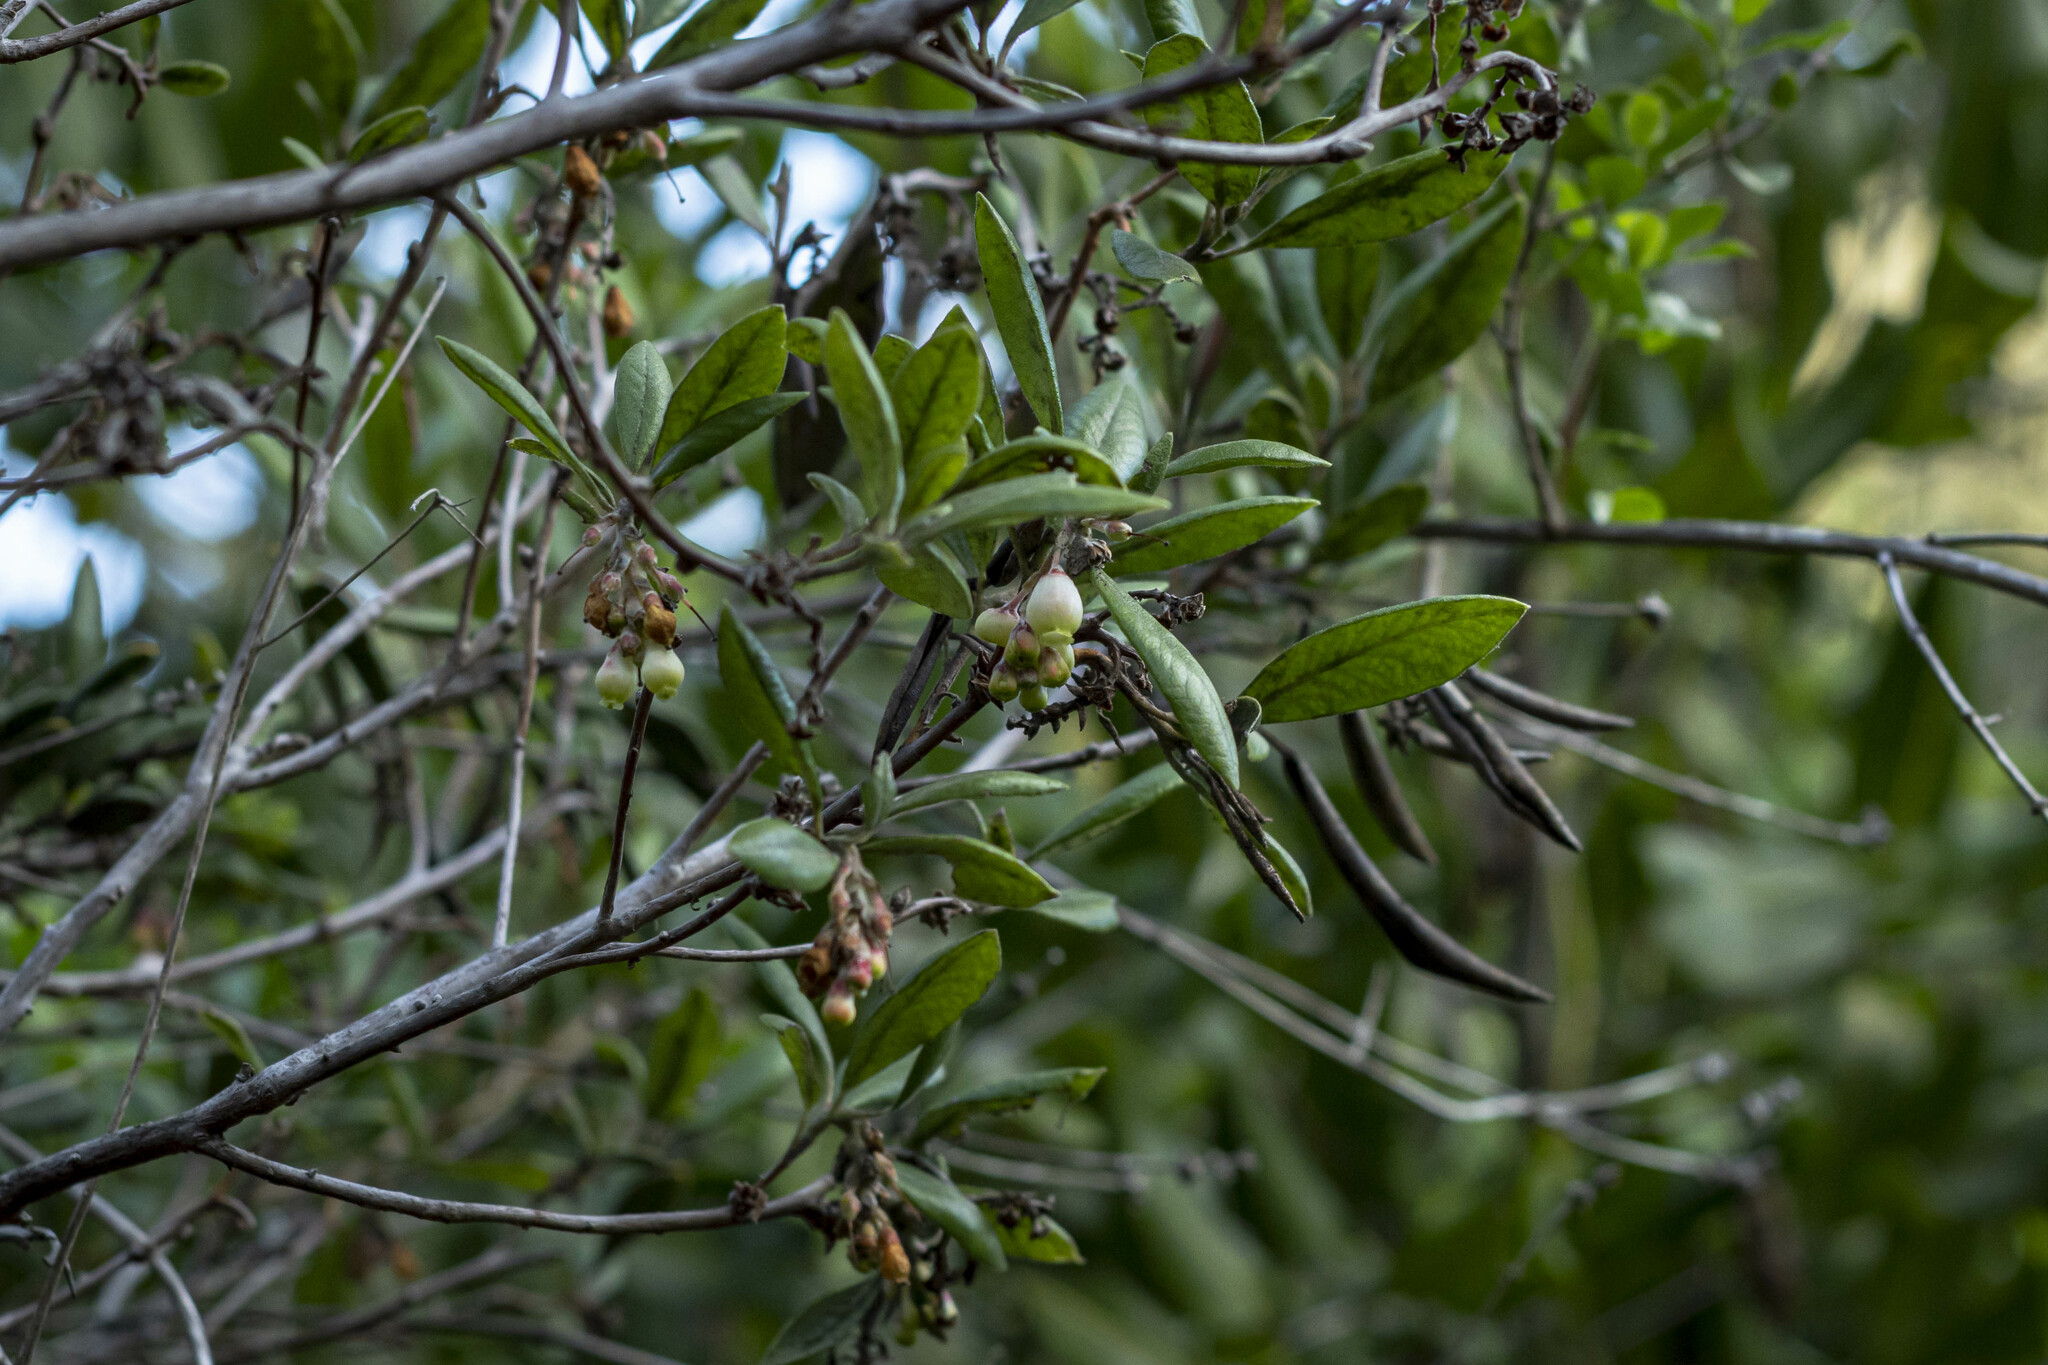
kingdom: Plantae
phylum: Tracheophyta
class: Magnoliopsida
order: Ericales
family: Ericaceae
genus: Arctostaphylos
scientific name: Arctostaphylos bicolor
